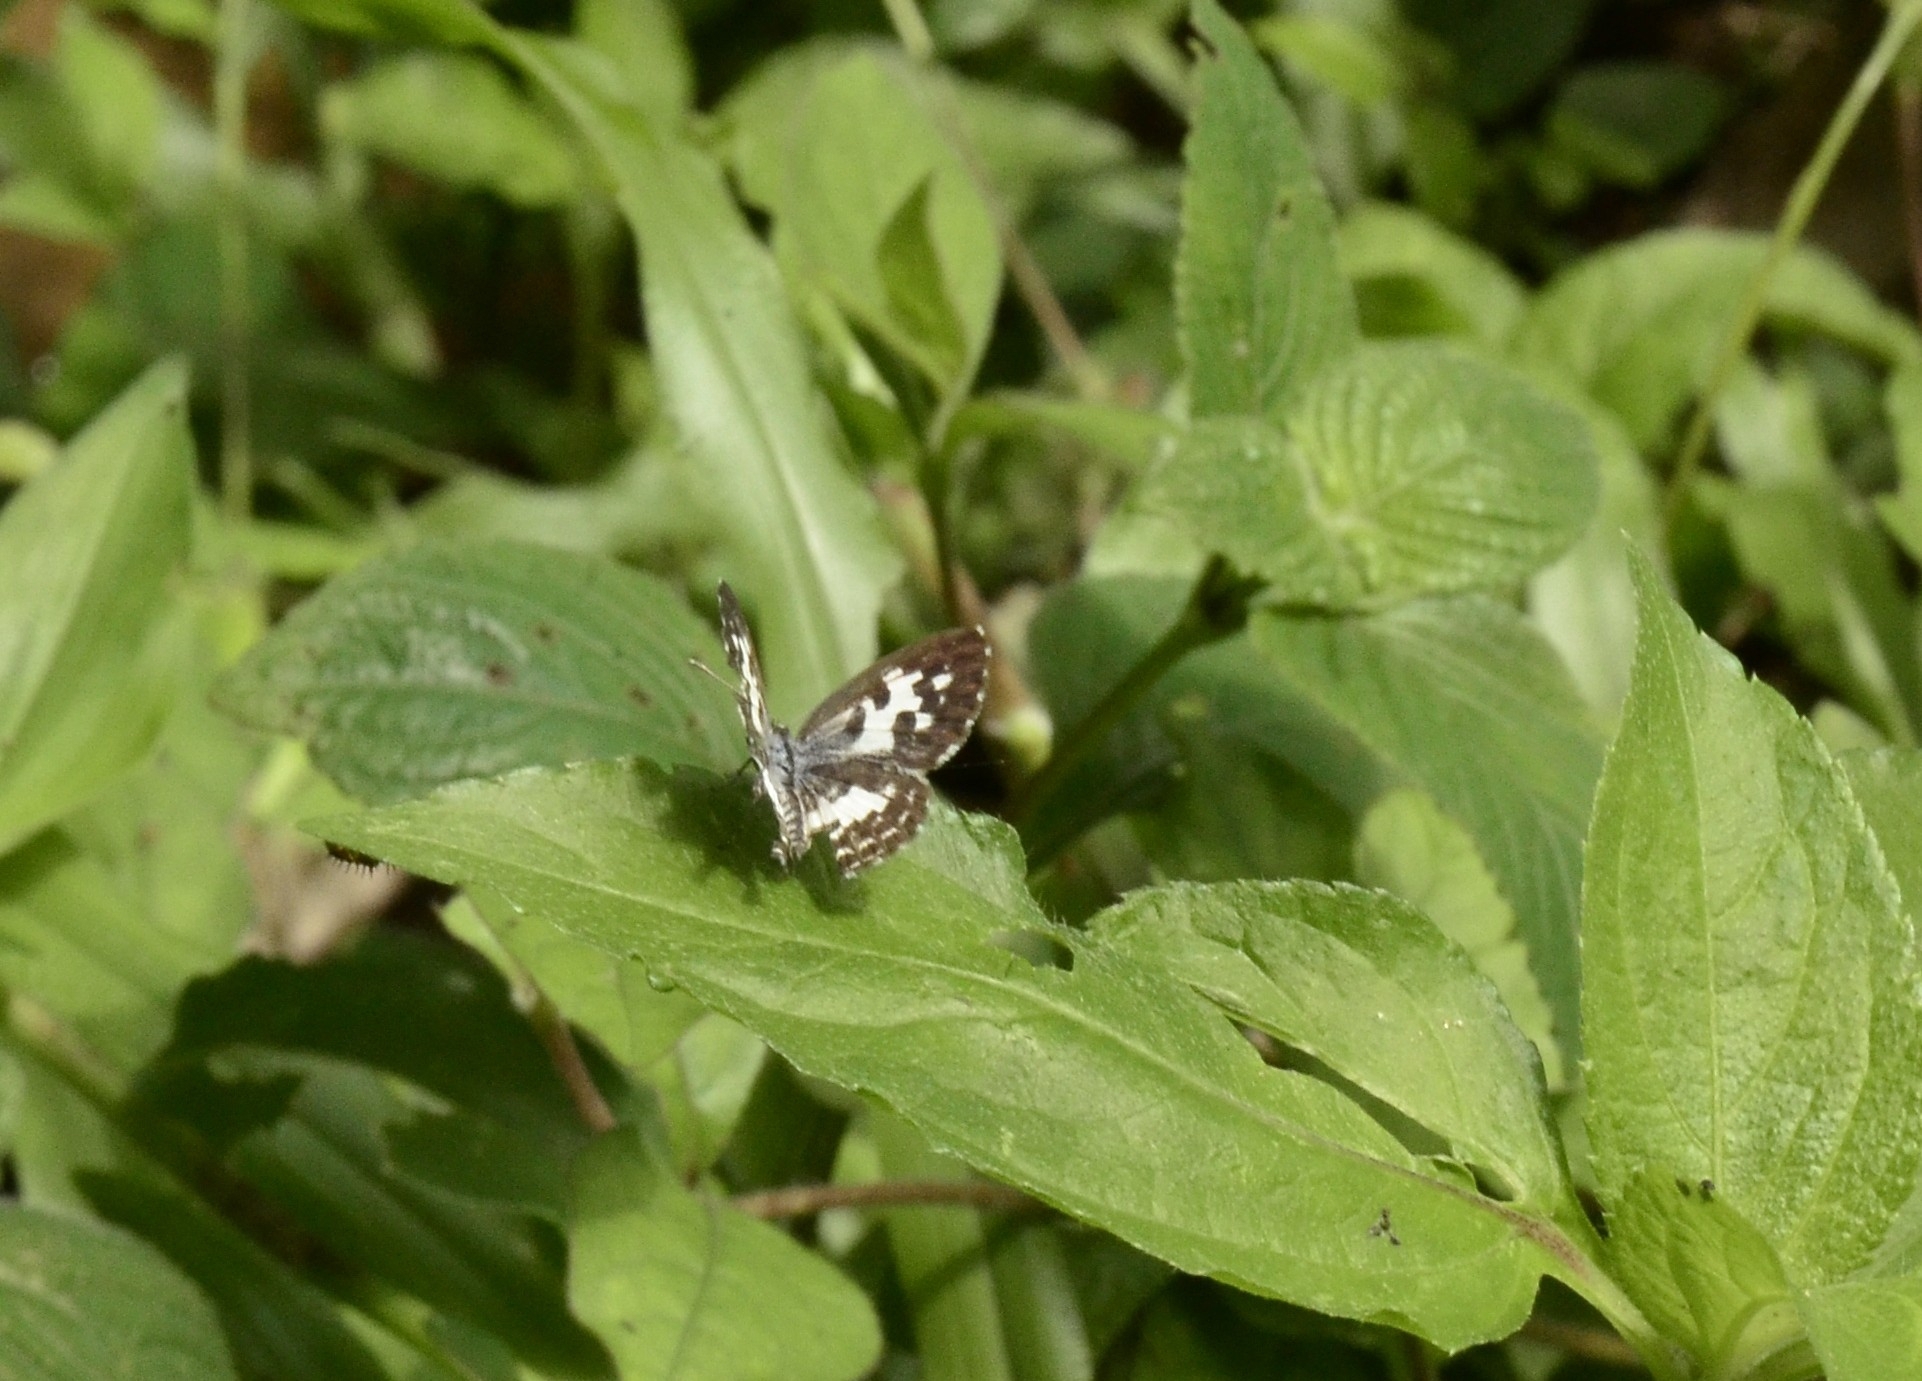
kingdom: Animalia
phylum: Arthropoda
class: Insecta
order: Lepidoptera
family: Lycaenidae
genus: Castalius
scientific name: Castalius rosimon
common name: Common pierrot
